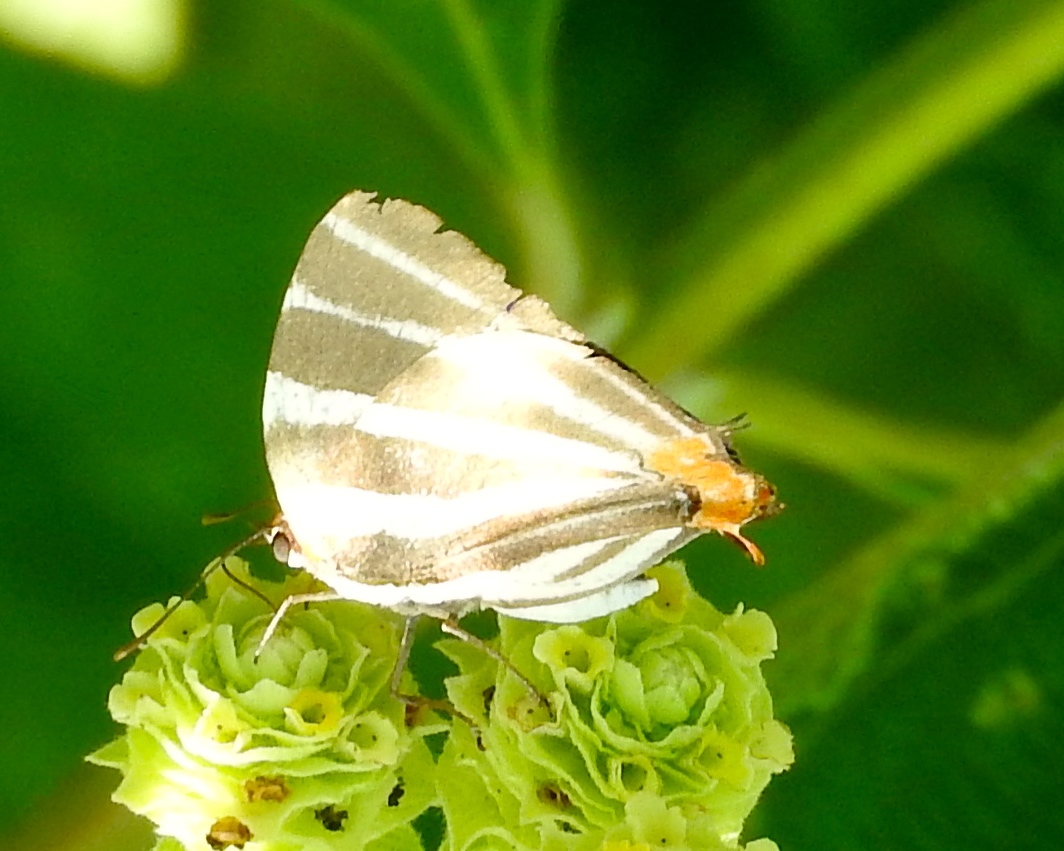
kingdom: Animalia
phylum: Arthropoda
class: Insecta
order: Lepidoptera
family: Lycaenidae
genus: Thecla
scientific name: Thecla bathildis
